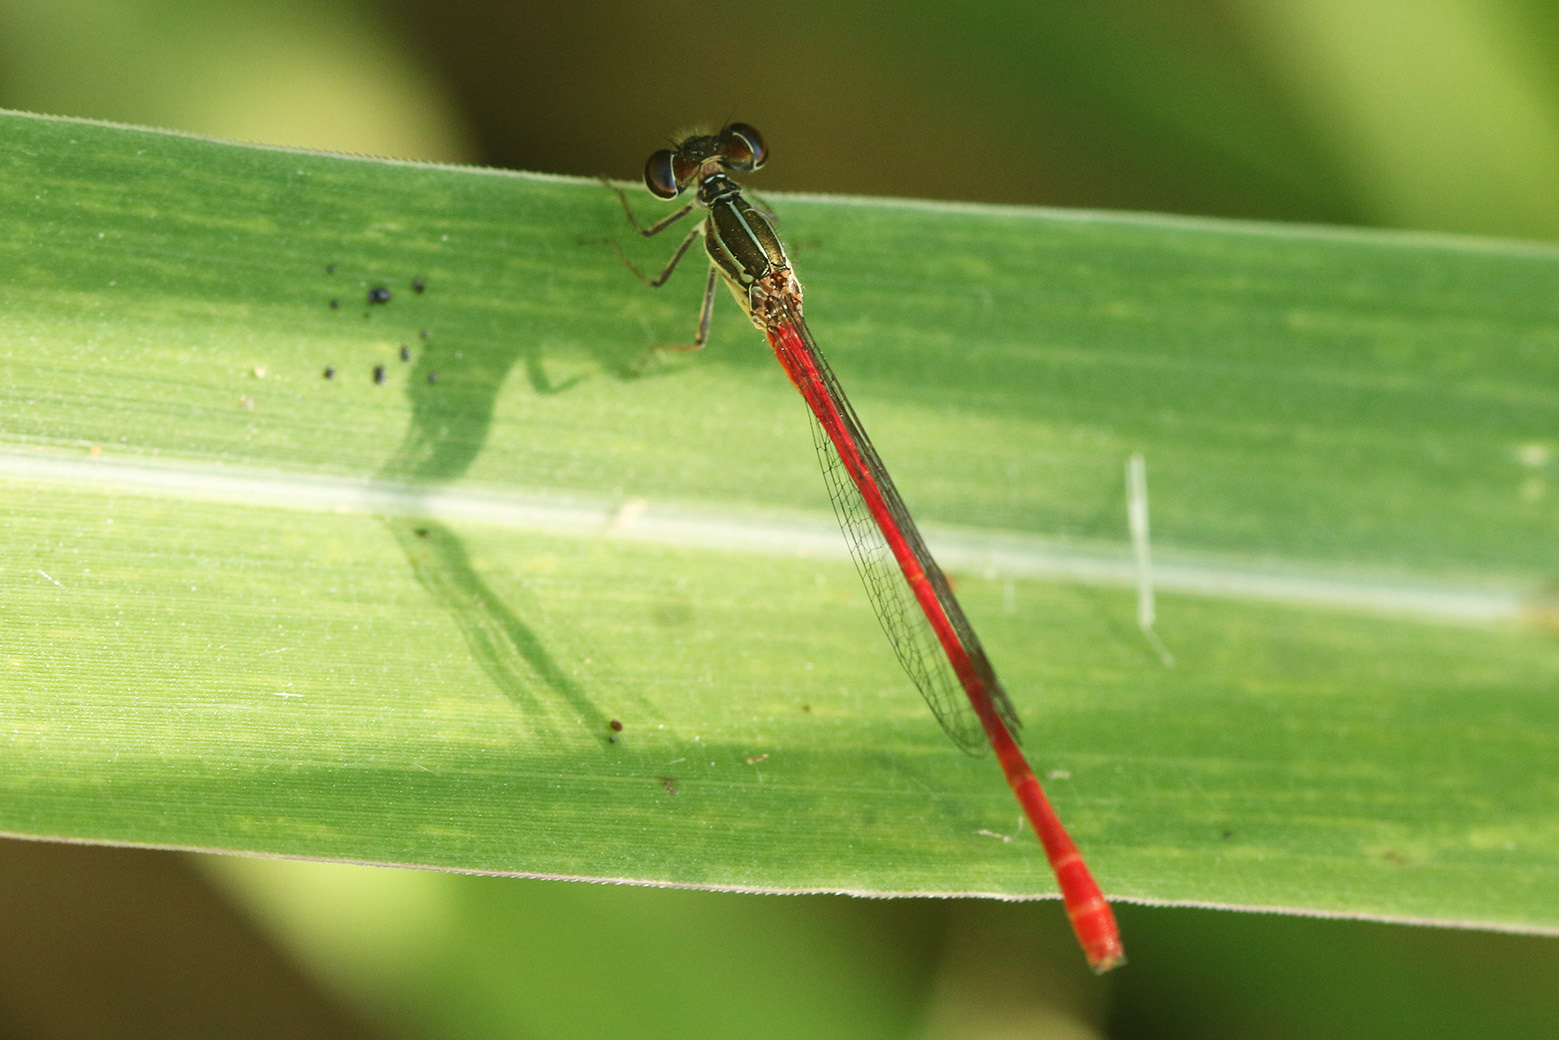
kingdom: Animalia
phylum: Arthropoda
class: Insecta
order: Odonata
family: Coenagrionidae
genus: Telebasis
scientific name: Telebasis willinki
